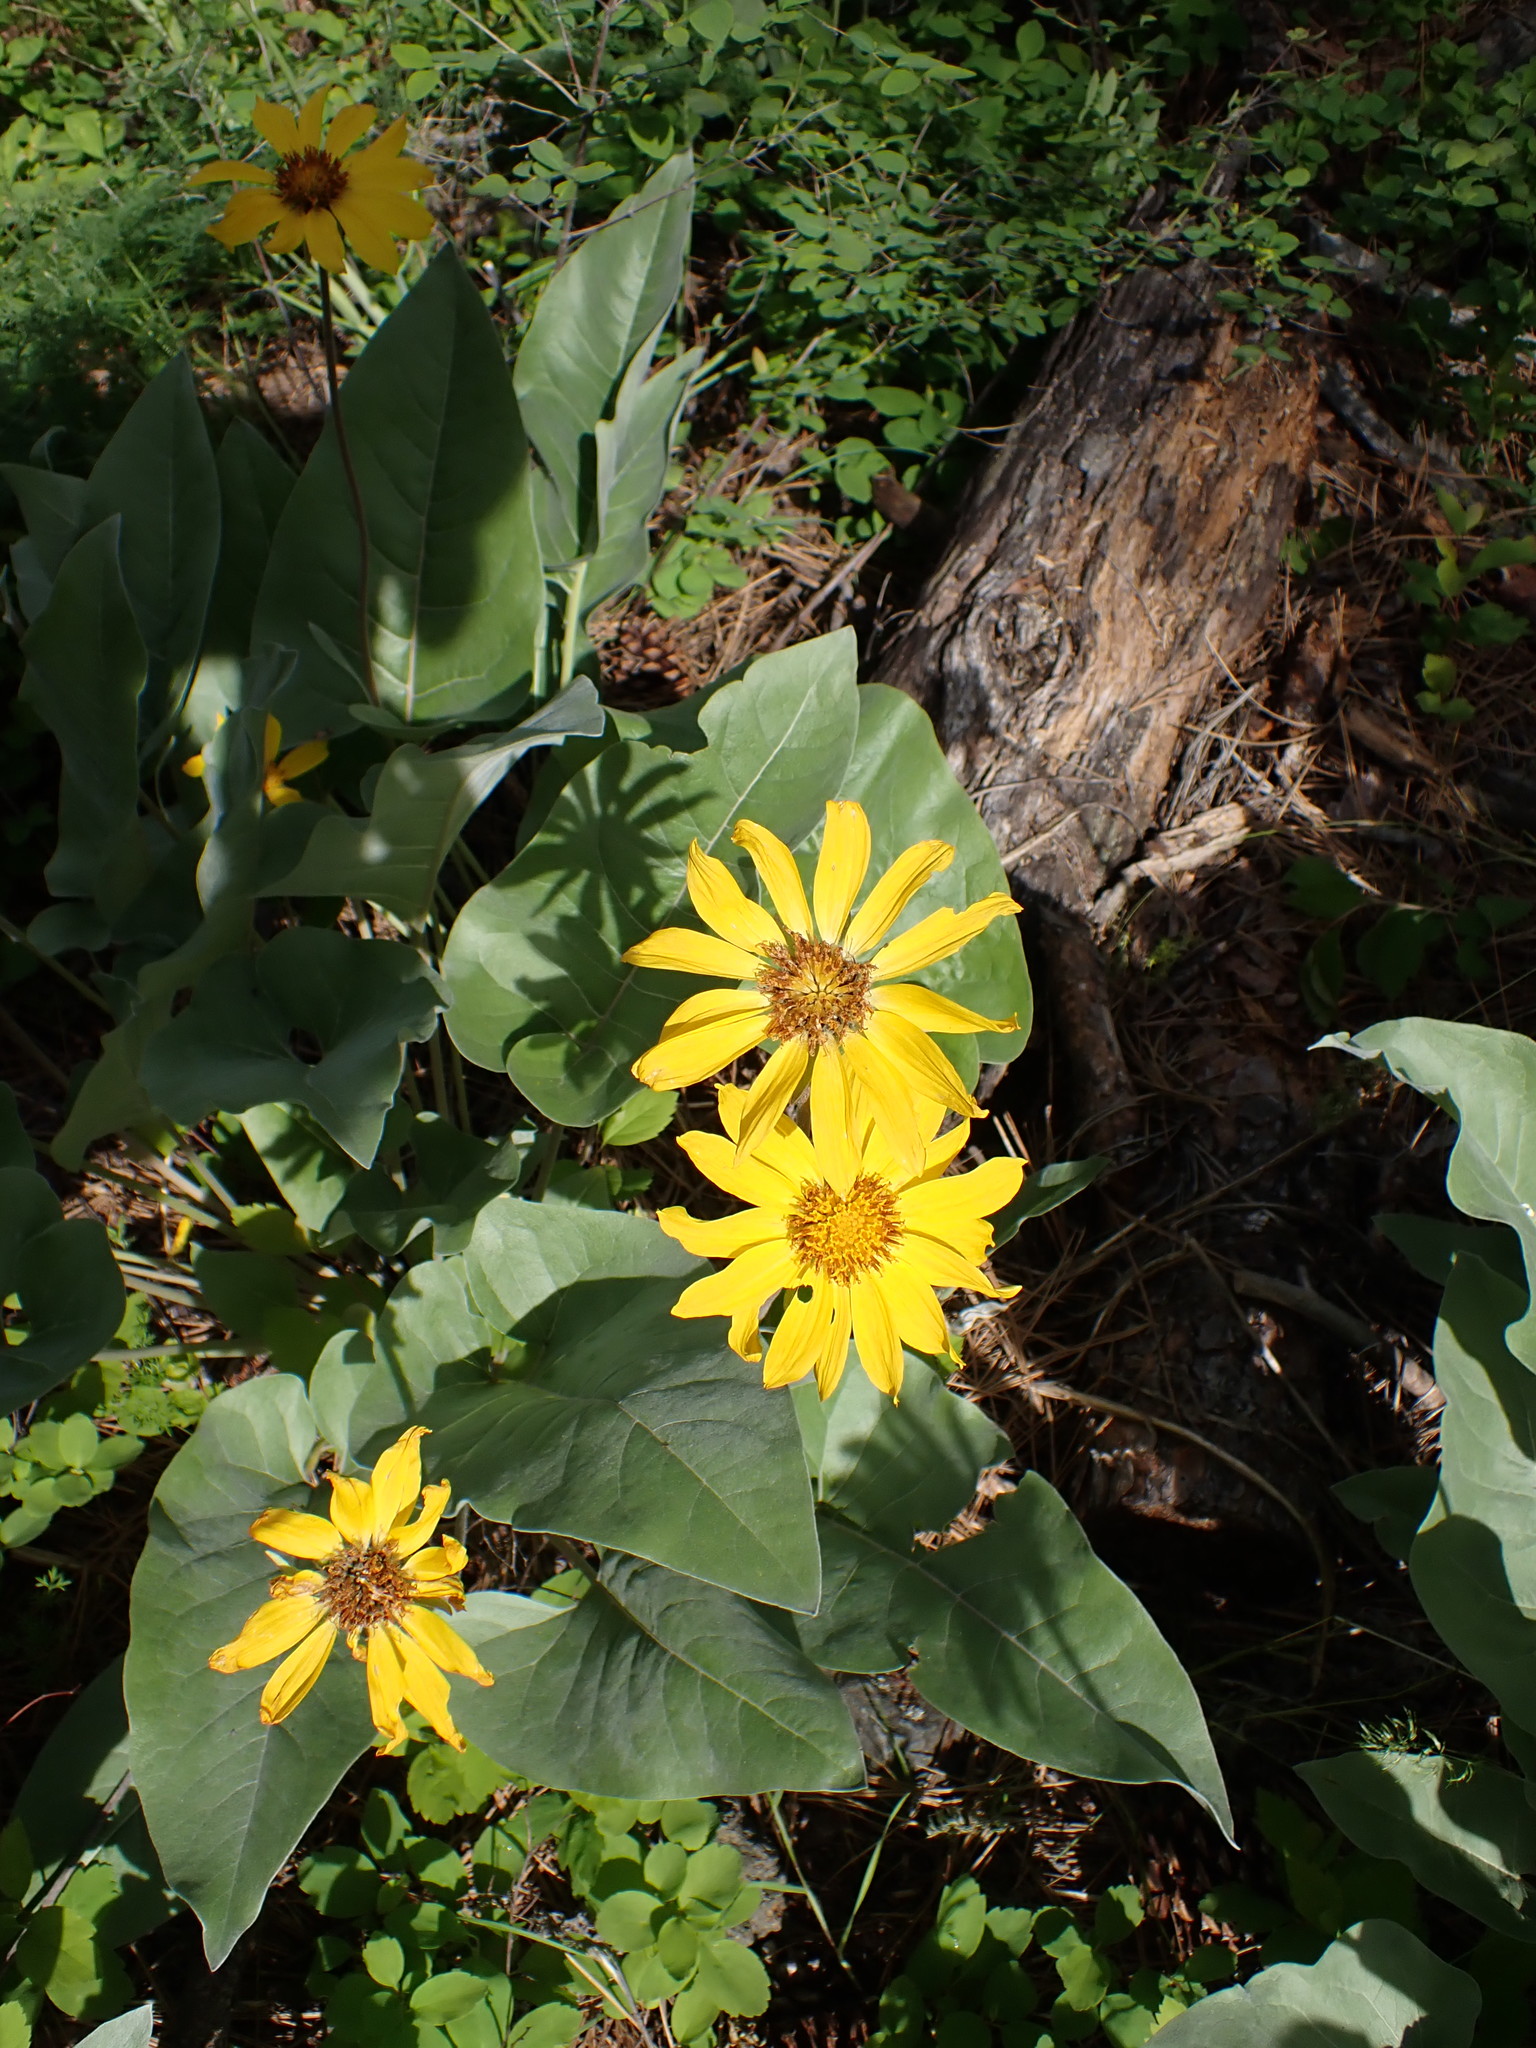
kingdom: Plantae
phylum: Tracheophyta
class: Magnoliopsida
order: Asterales
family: Asteraceae
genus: Wyethia
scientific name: Wyethia sagittata
